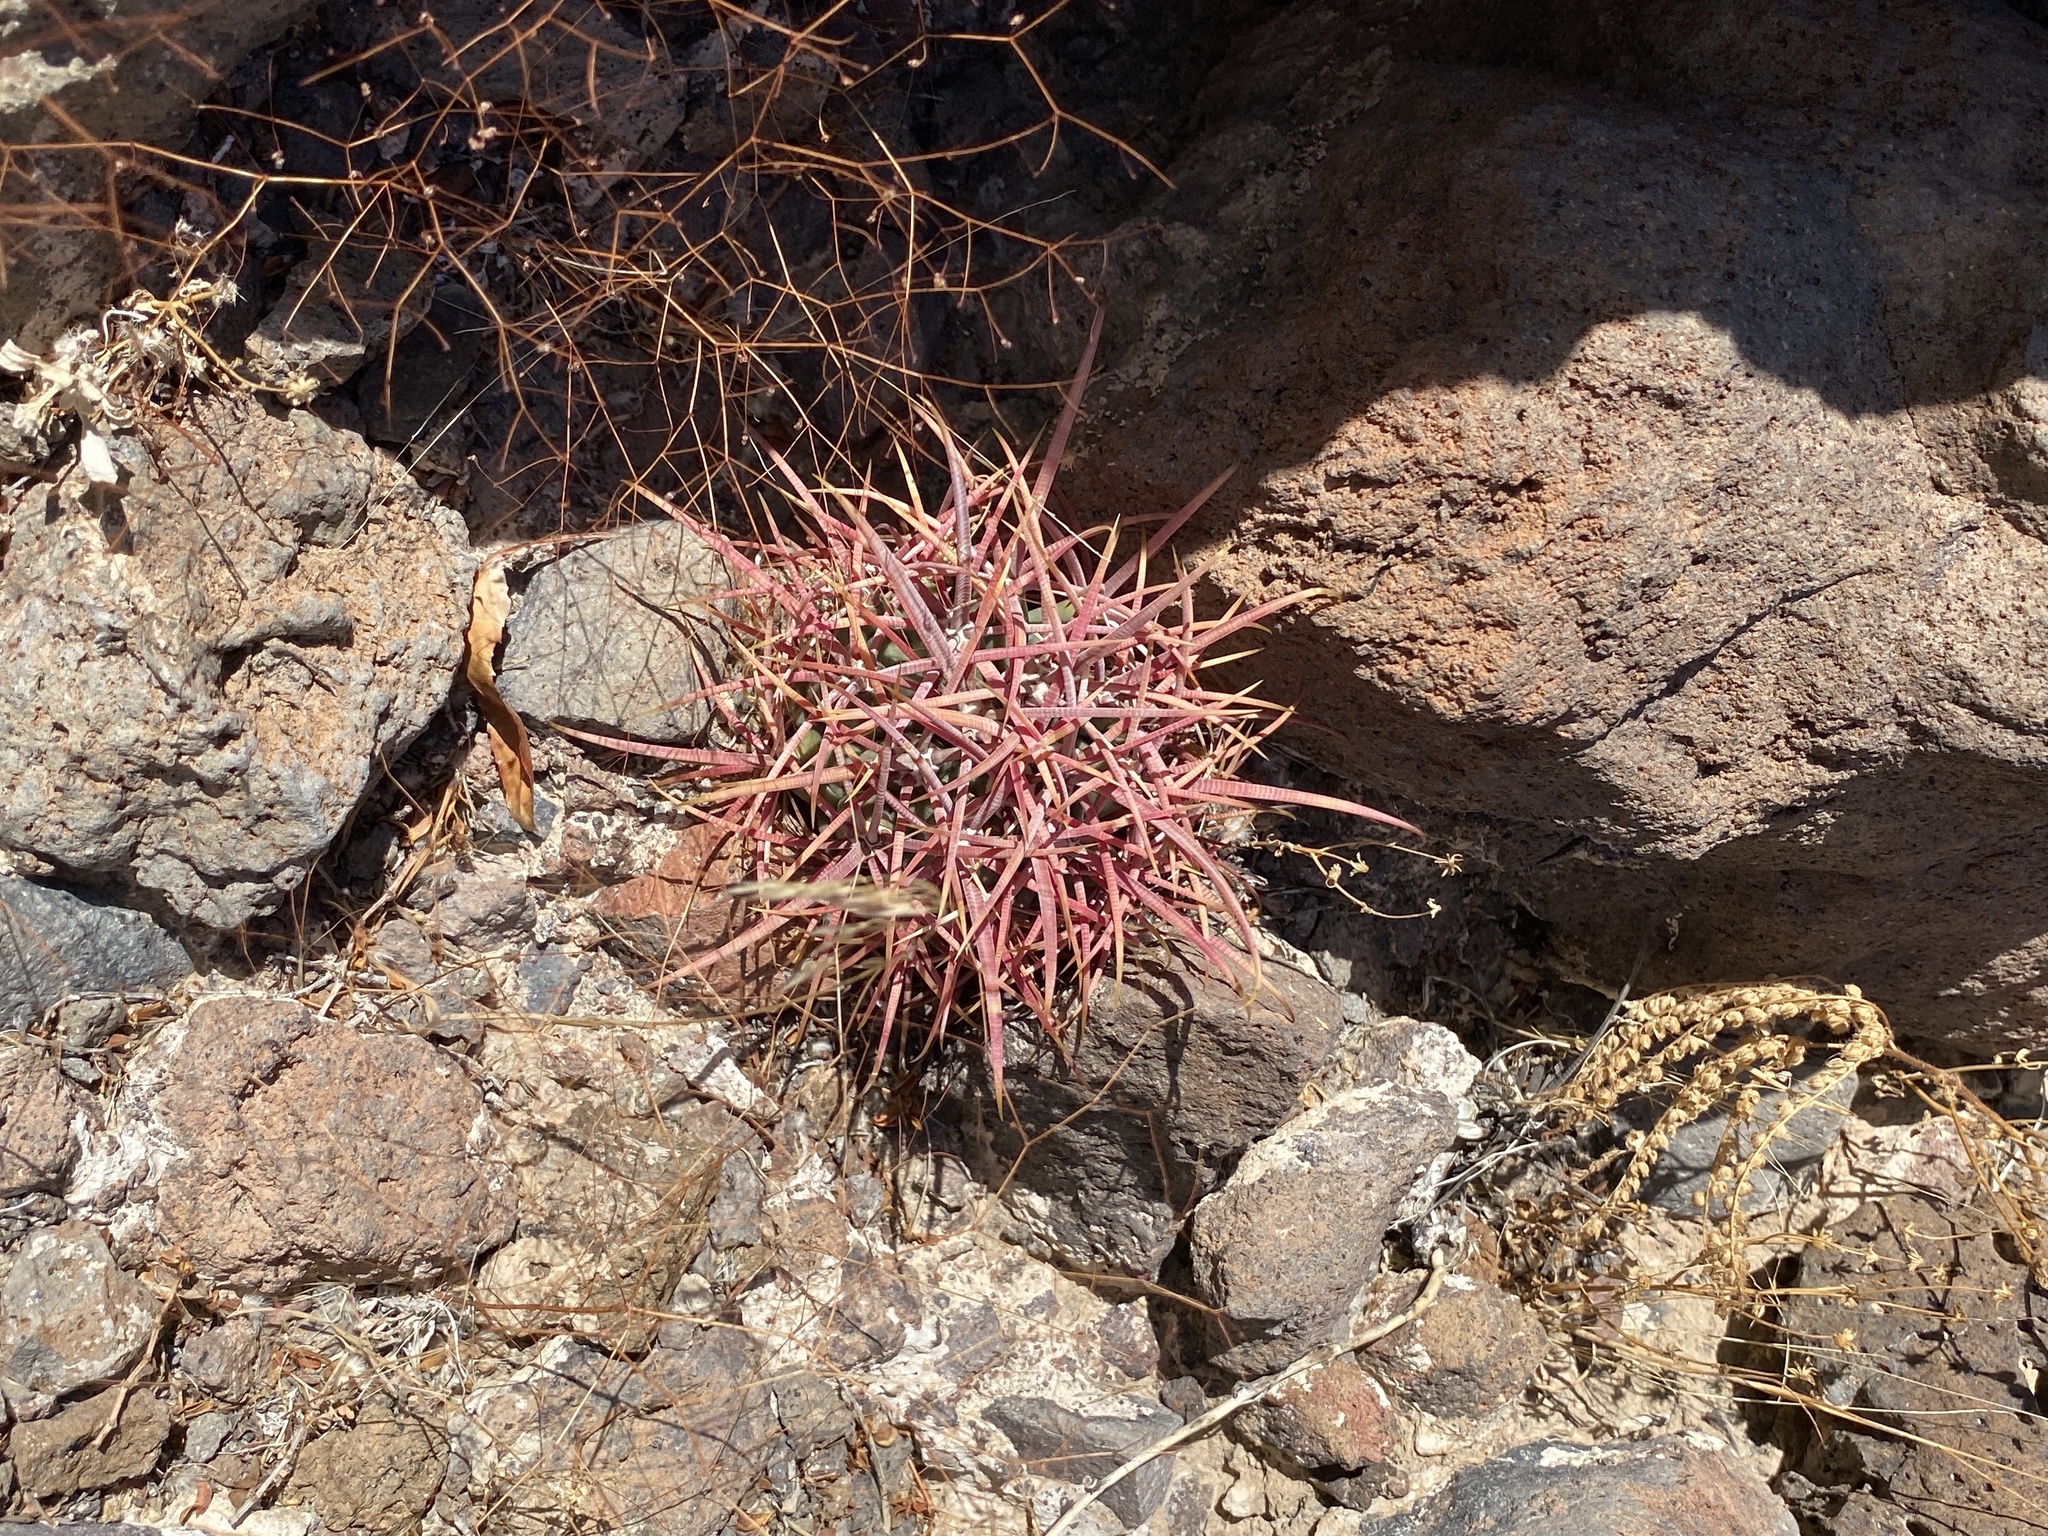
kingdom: Plantae
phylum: Tracheophyta
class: Magnoliopsida
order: Caryophyllales
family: Cactaceae
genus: Ferocactus
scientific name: Ferocactus cylindraceus
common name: California barrel cactus
